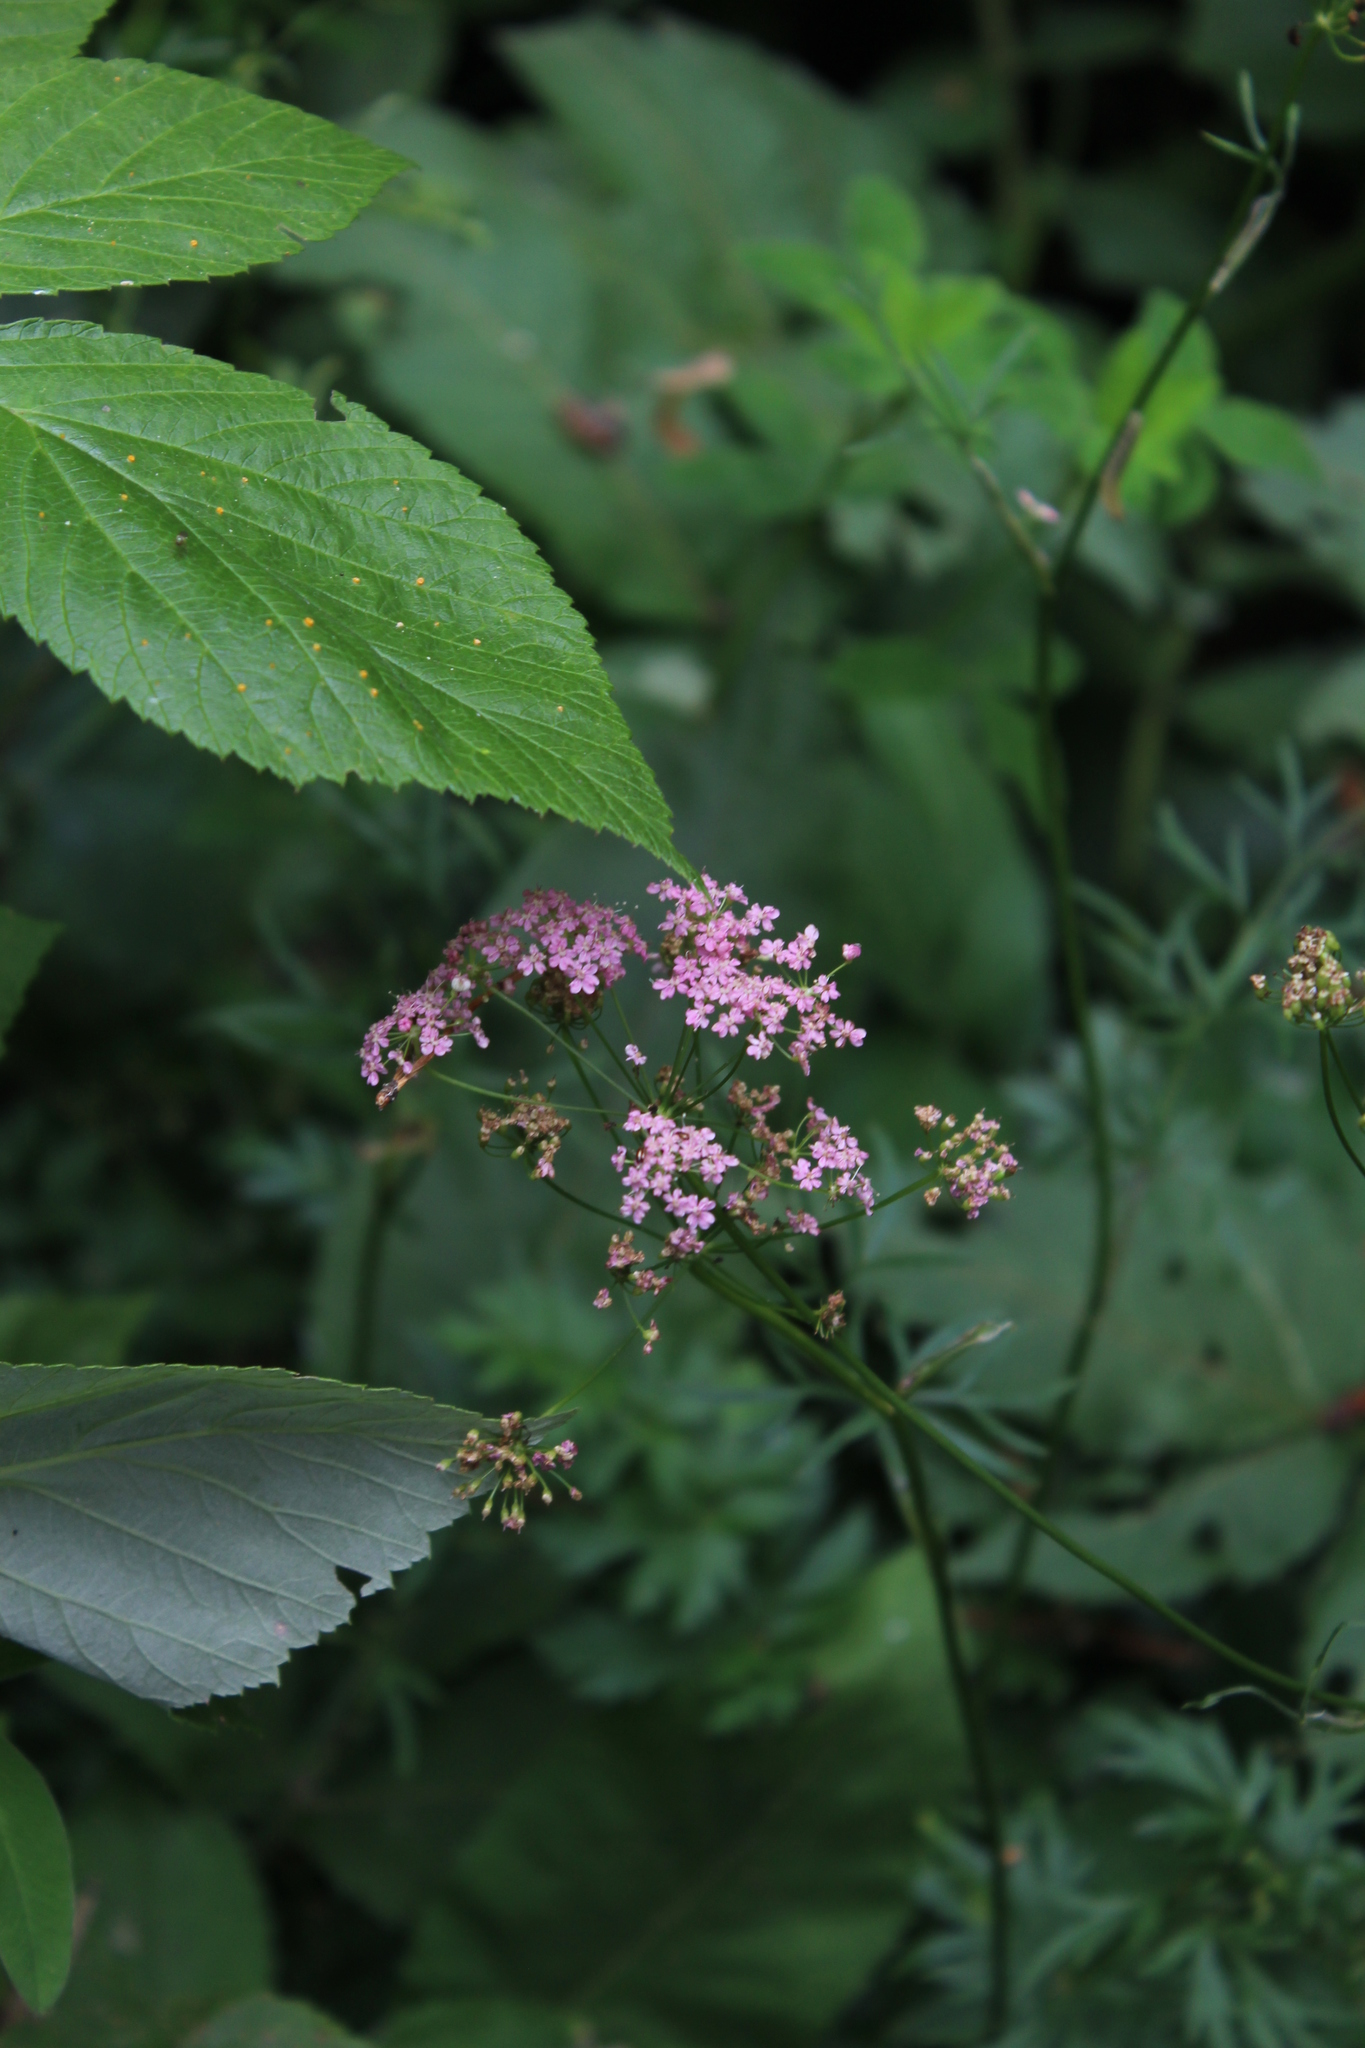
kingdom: Plantae
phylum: Tracheophyta
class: Magnoliopsida
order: Apiales
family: Apiaceae
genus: Pimpinella
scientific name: Pimpinella rhodantha
